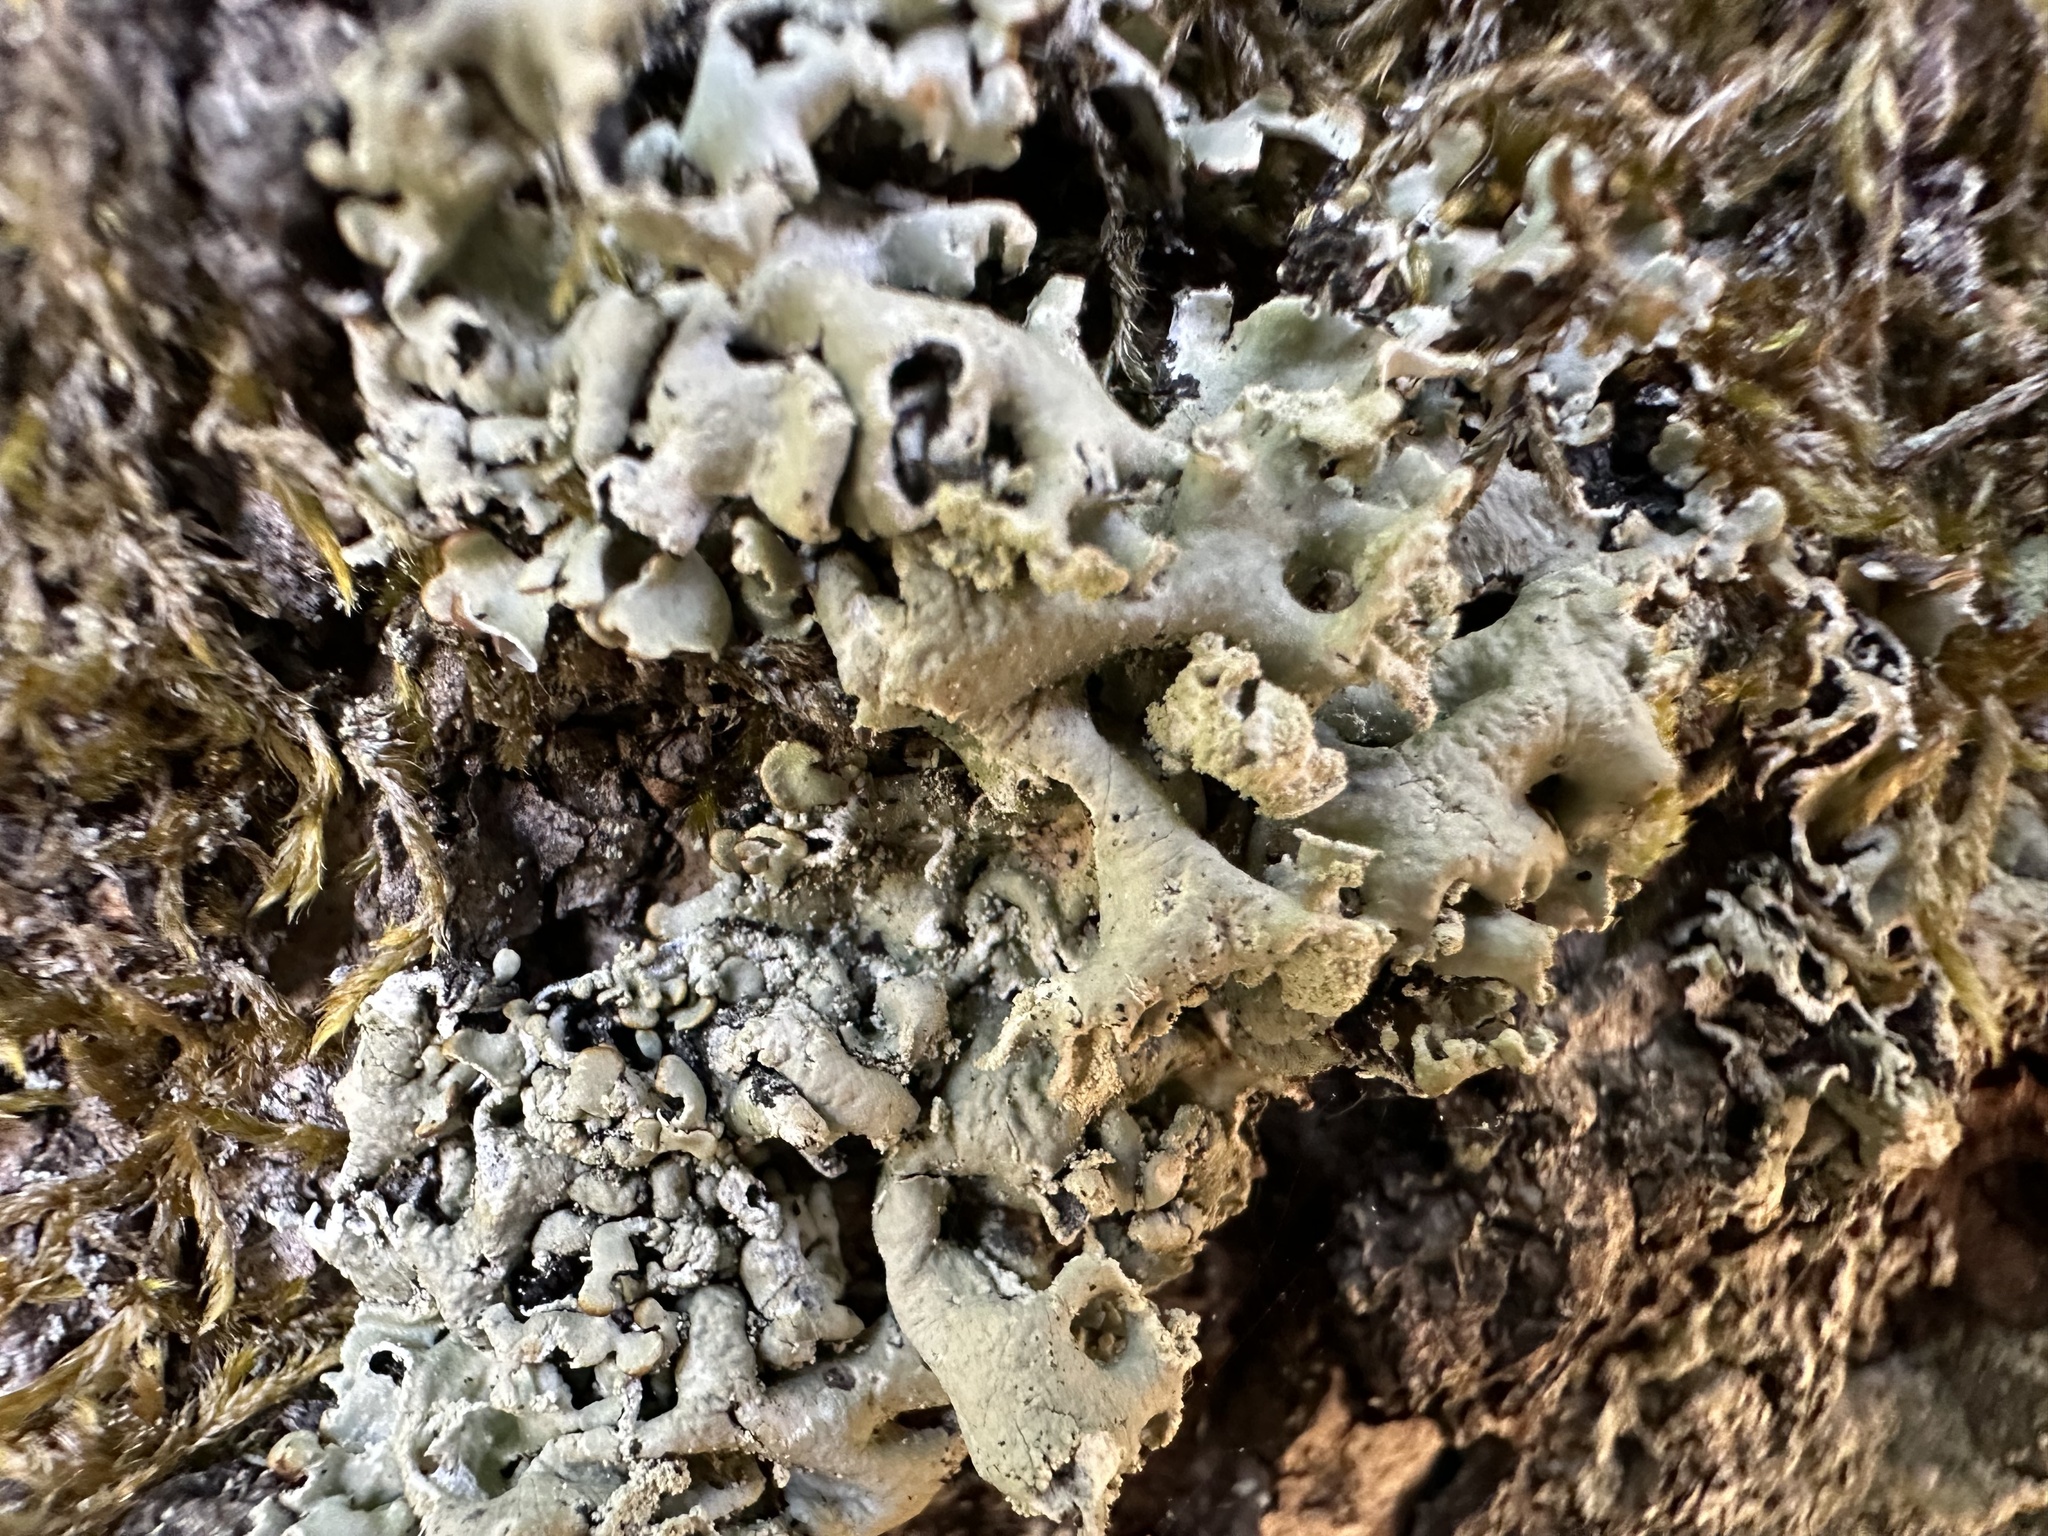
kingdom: Fungi
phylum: Ascomycota
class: Lecanoromycetes
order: Lecanorales
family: Parmeliaceae
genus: Hypogymnia
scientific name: Hypogymnia physodes
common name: Dark crottle
